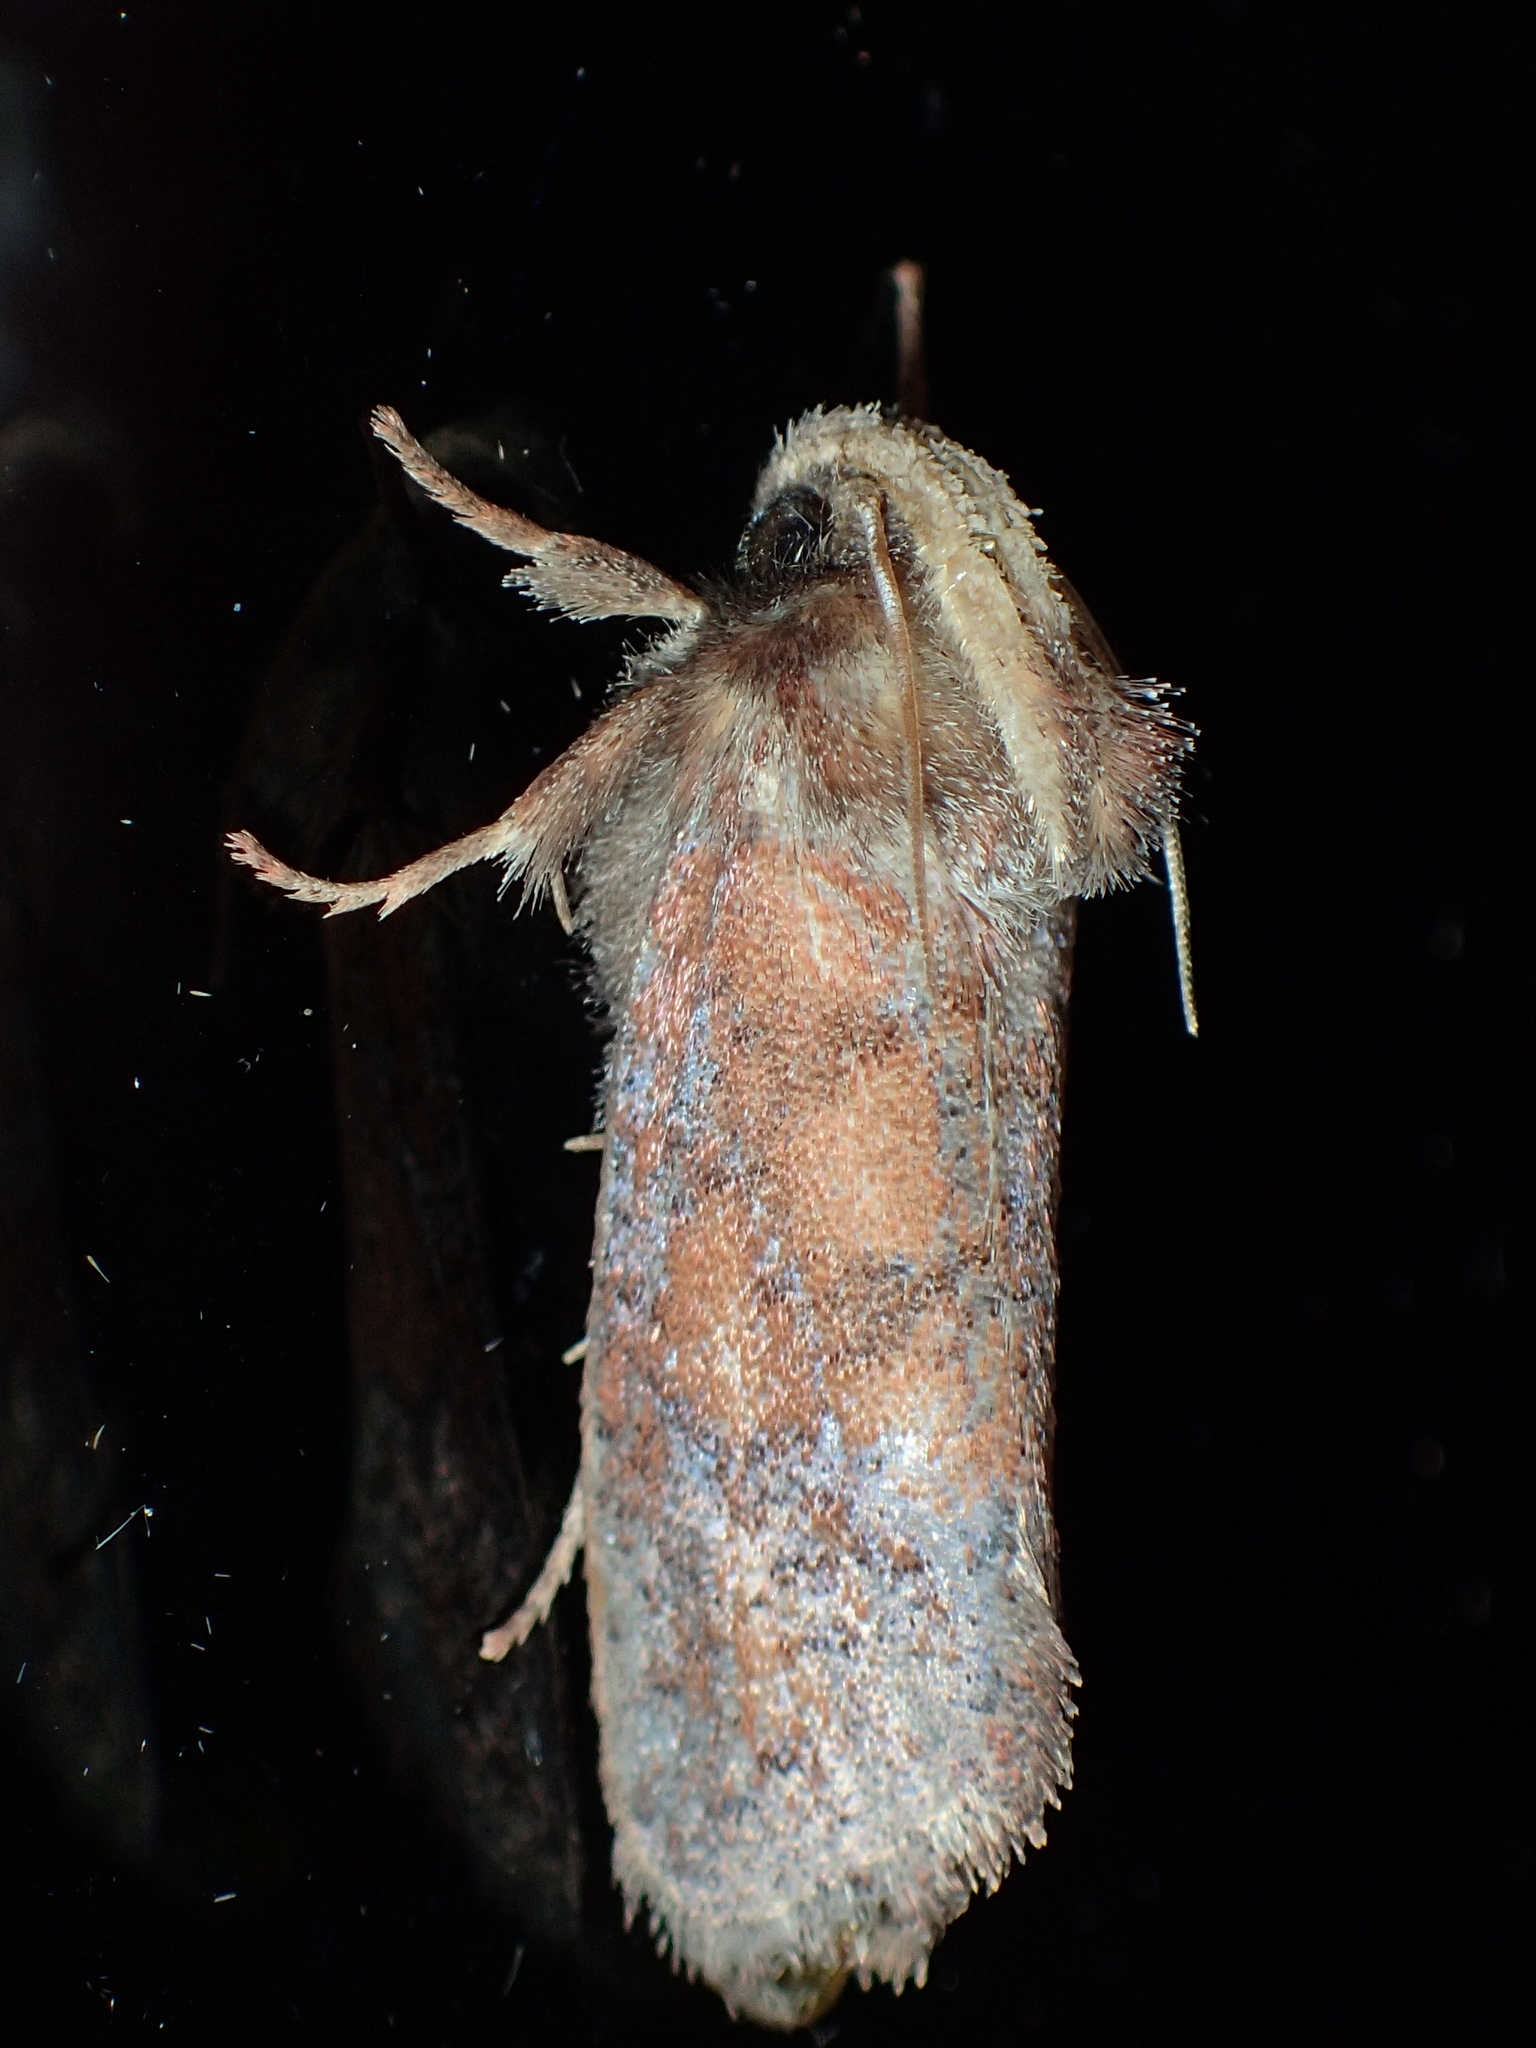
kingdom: Animalia
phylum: Arthropoda
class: Insecta
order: Lepidoptera
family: Tineidae
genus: Acrolophus
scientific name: Acrolophus plumifrontella
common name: Eastern grass tubeworm moth
